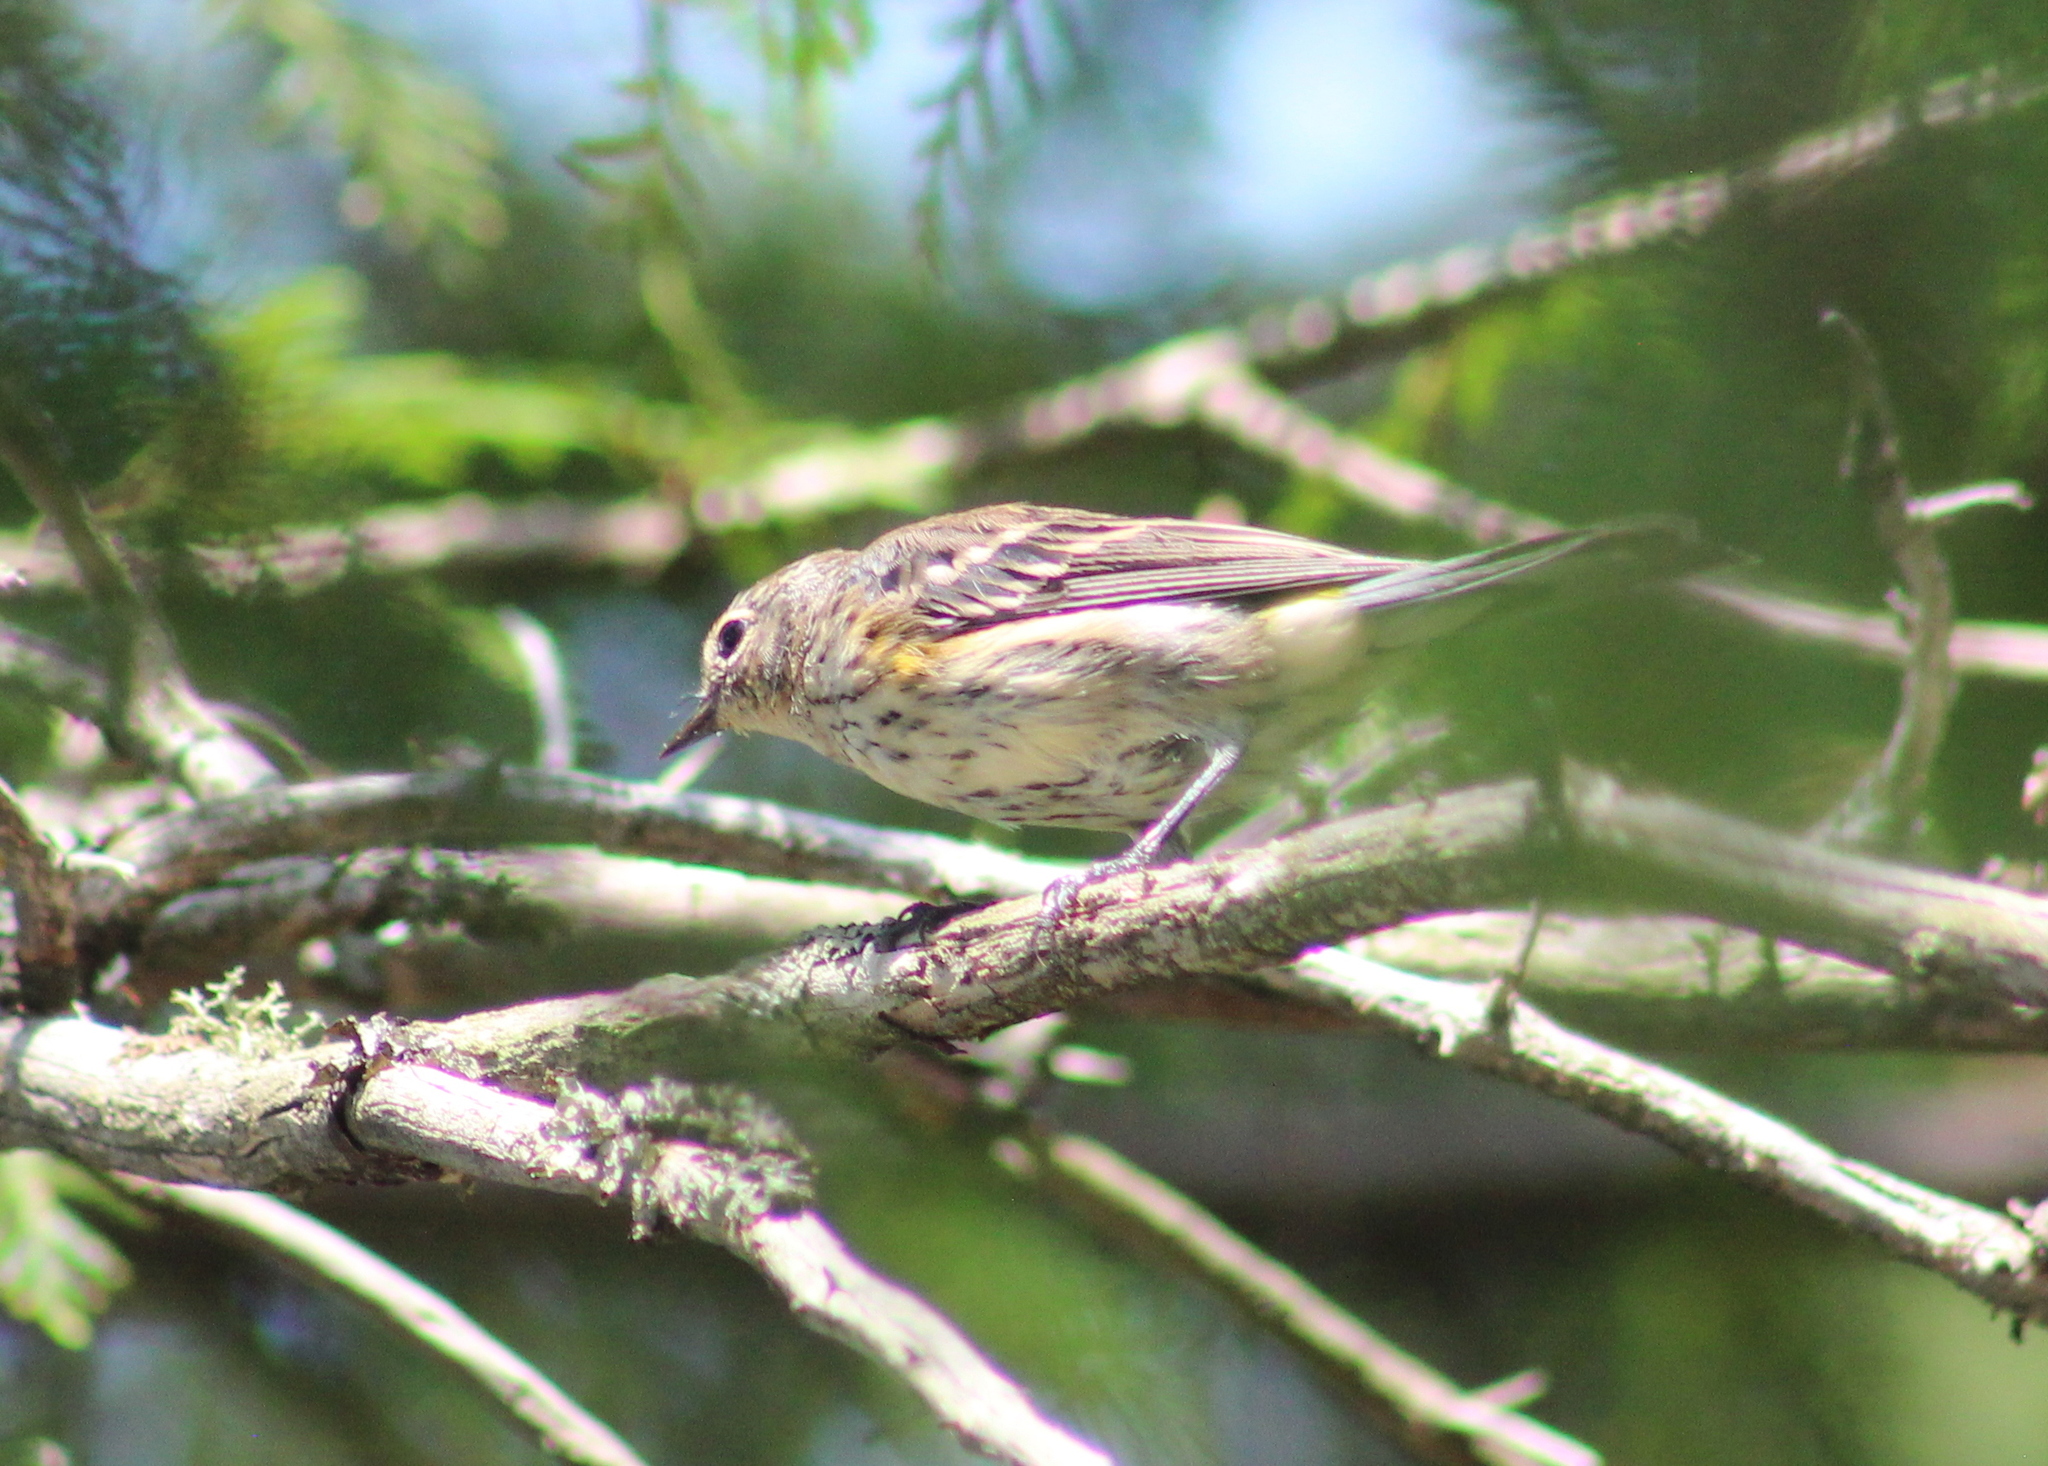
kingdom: Animalia
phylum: Chordata
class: Aves
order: Passeriformes
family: Parulidae
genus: Setophaga
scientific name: Setophaga coronata
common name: Myrtle warbler
